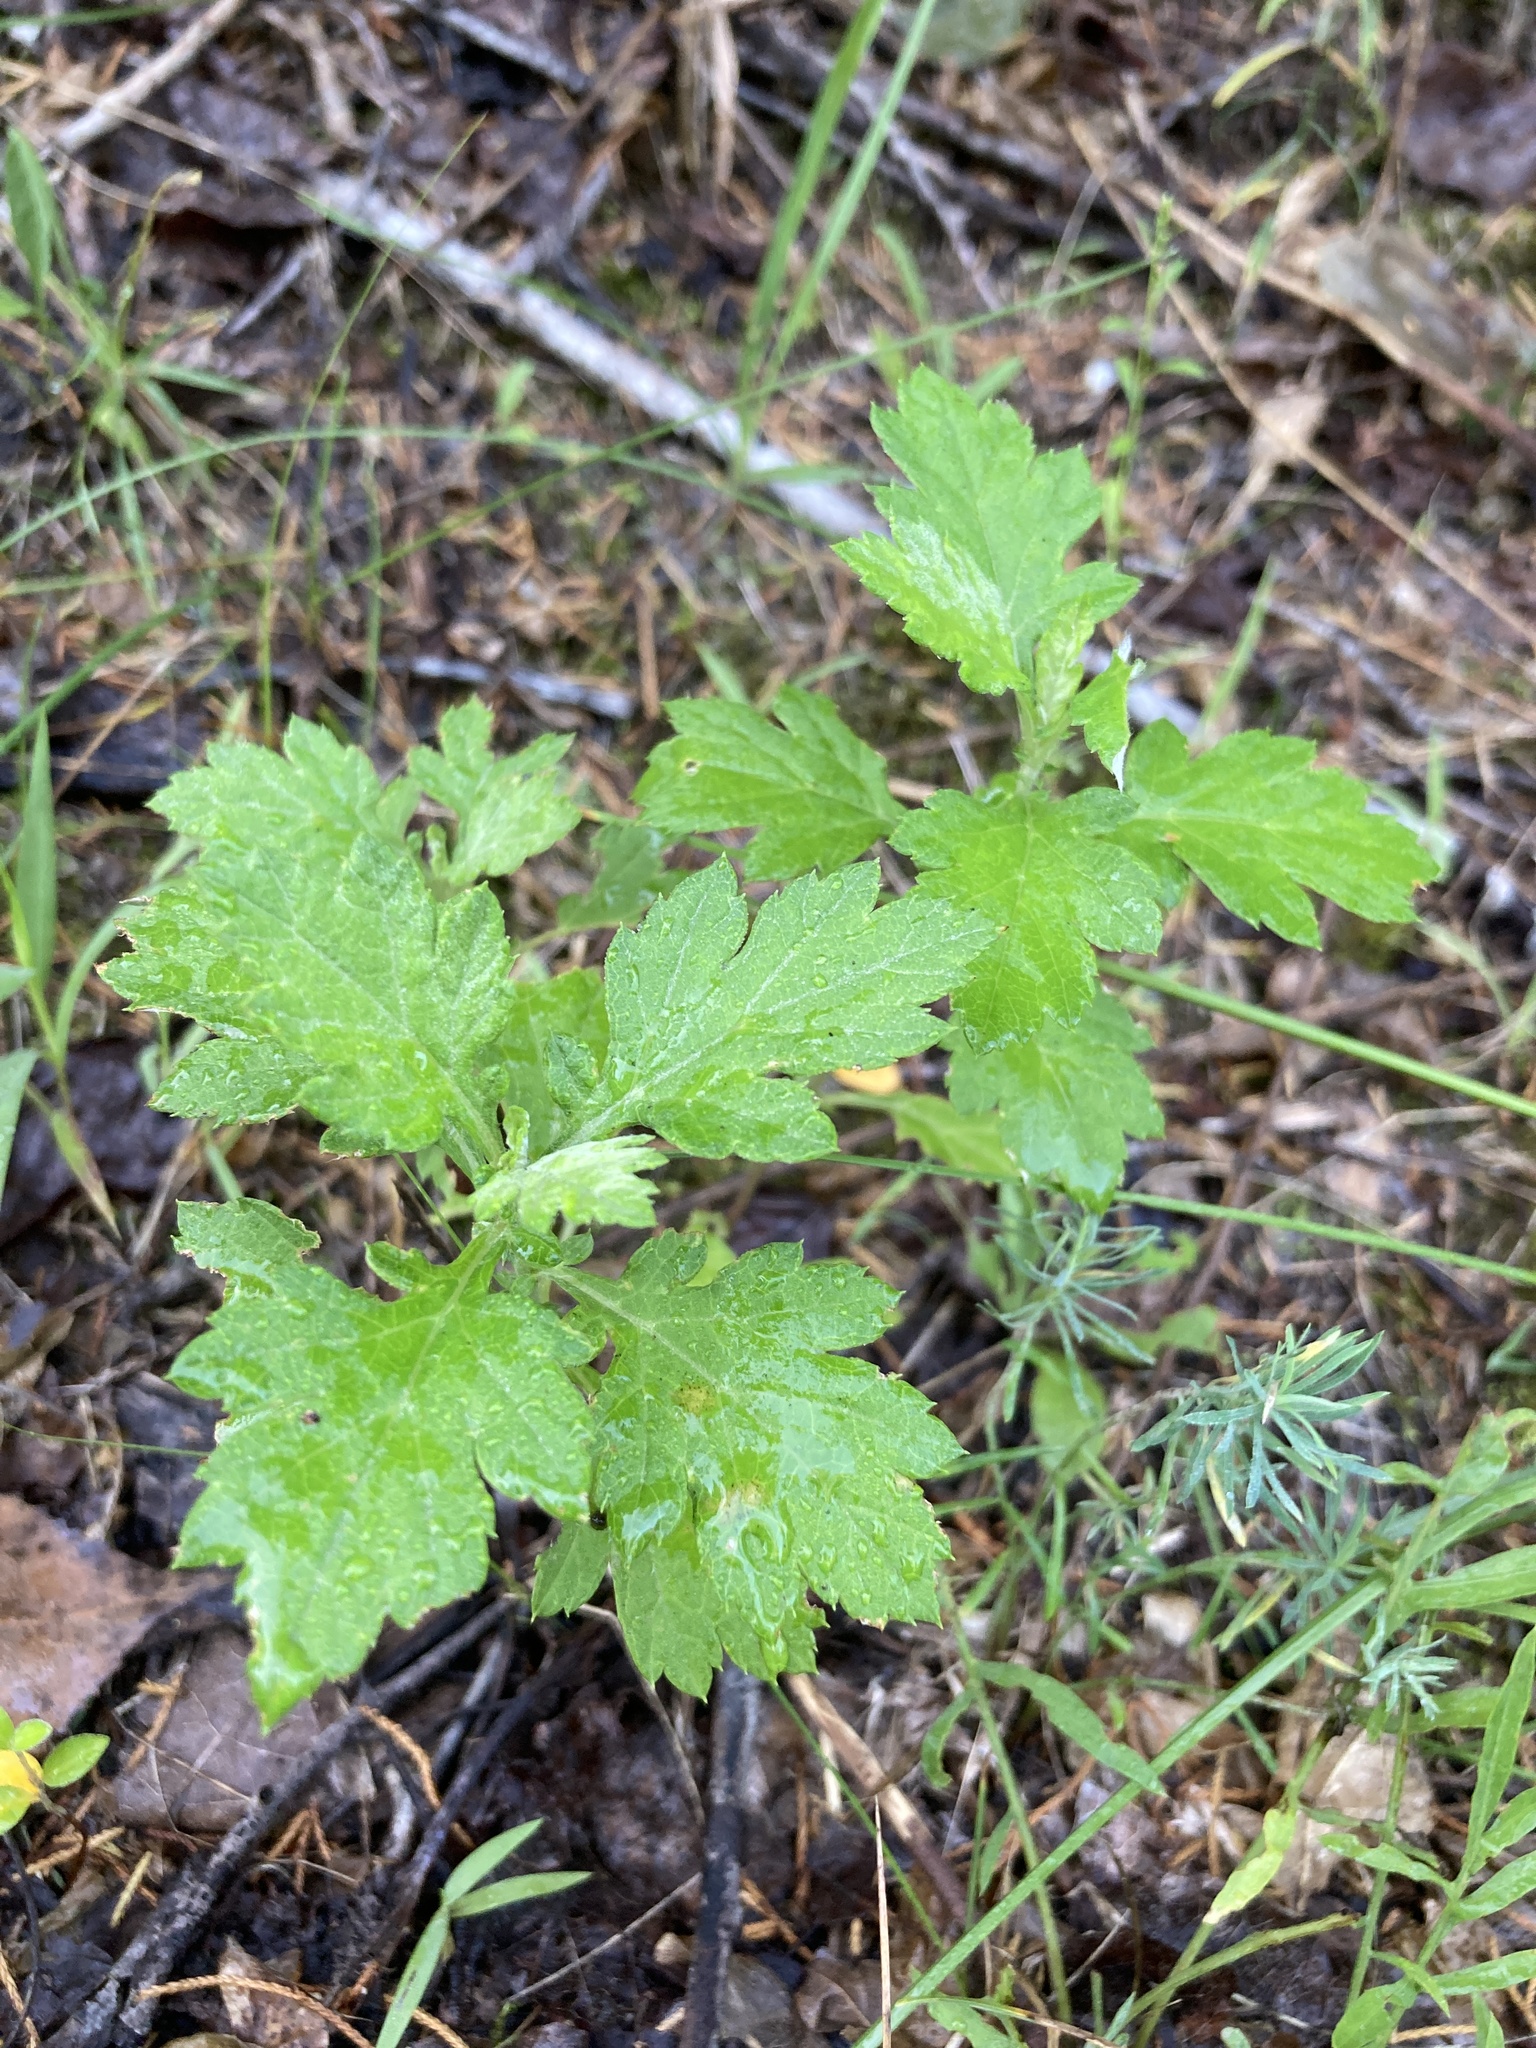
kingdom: Plantae
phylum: Tracheophyta
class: Magnoliopsida
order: Asterales
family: Asteraceae
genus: Artemisia
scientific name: Artemisia vulgaris
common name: Mugwort
